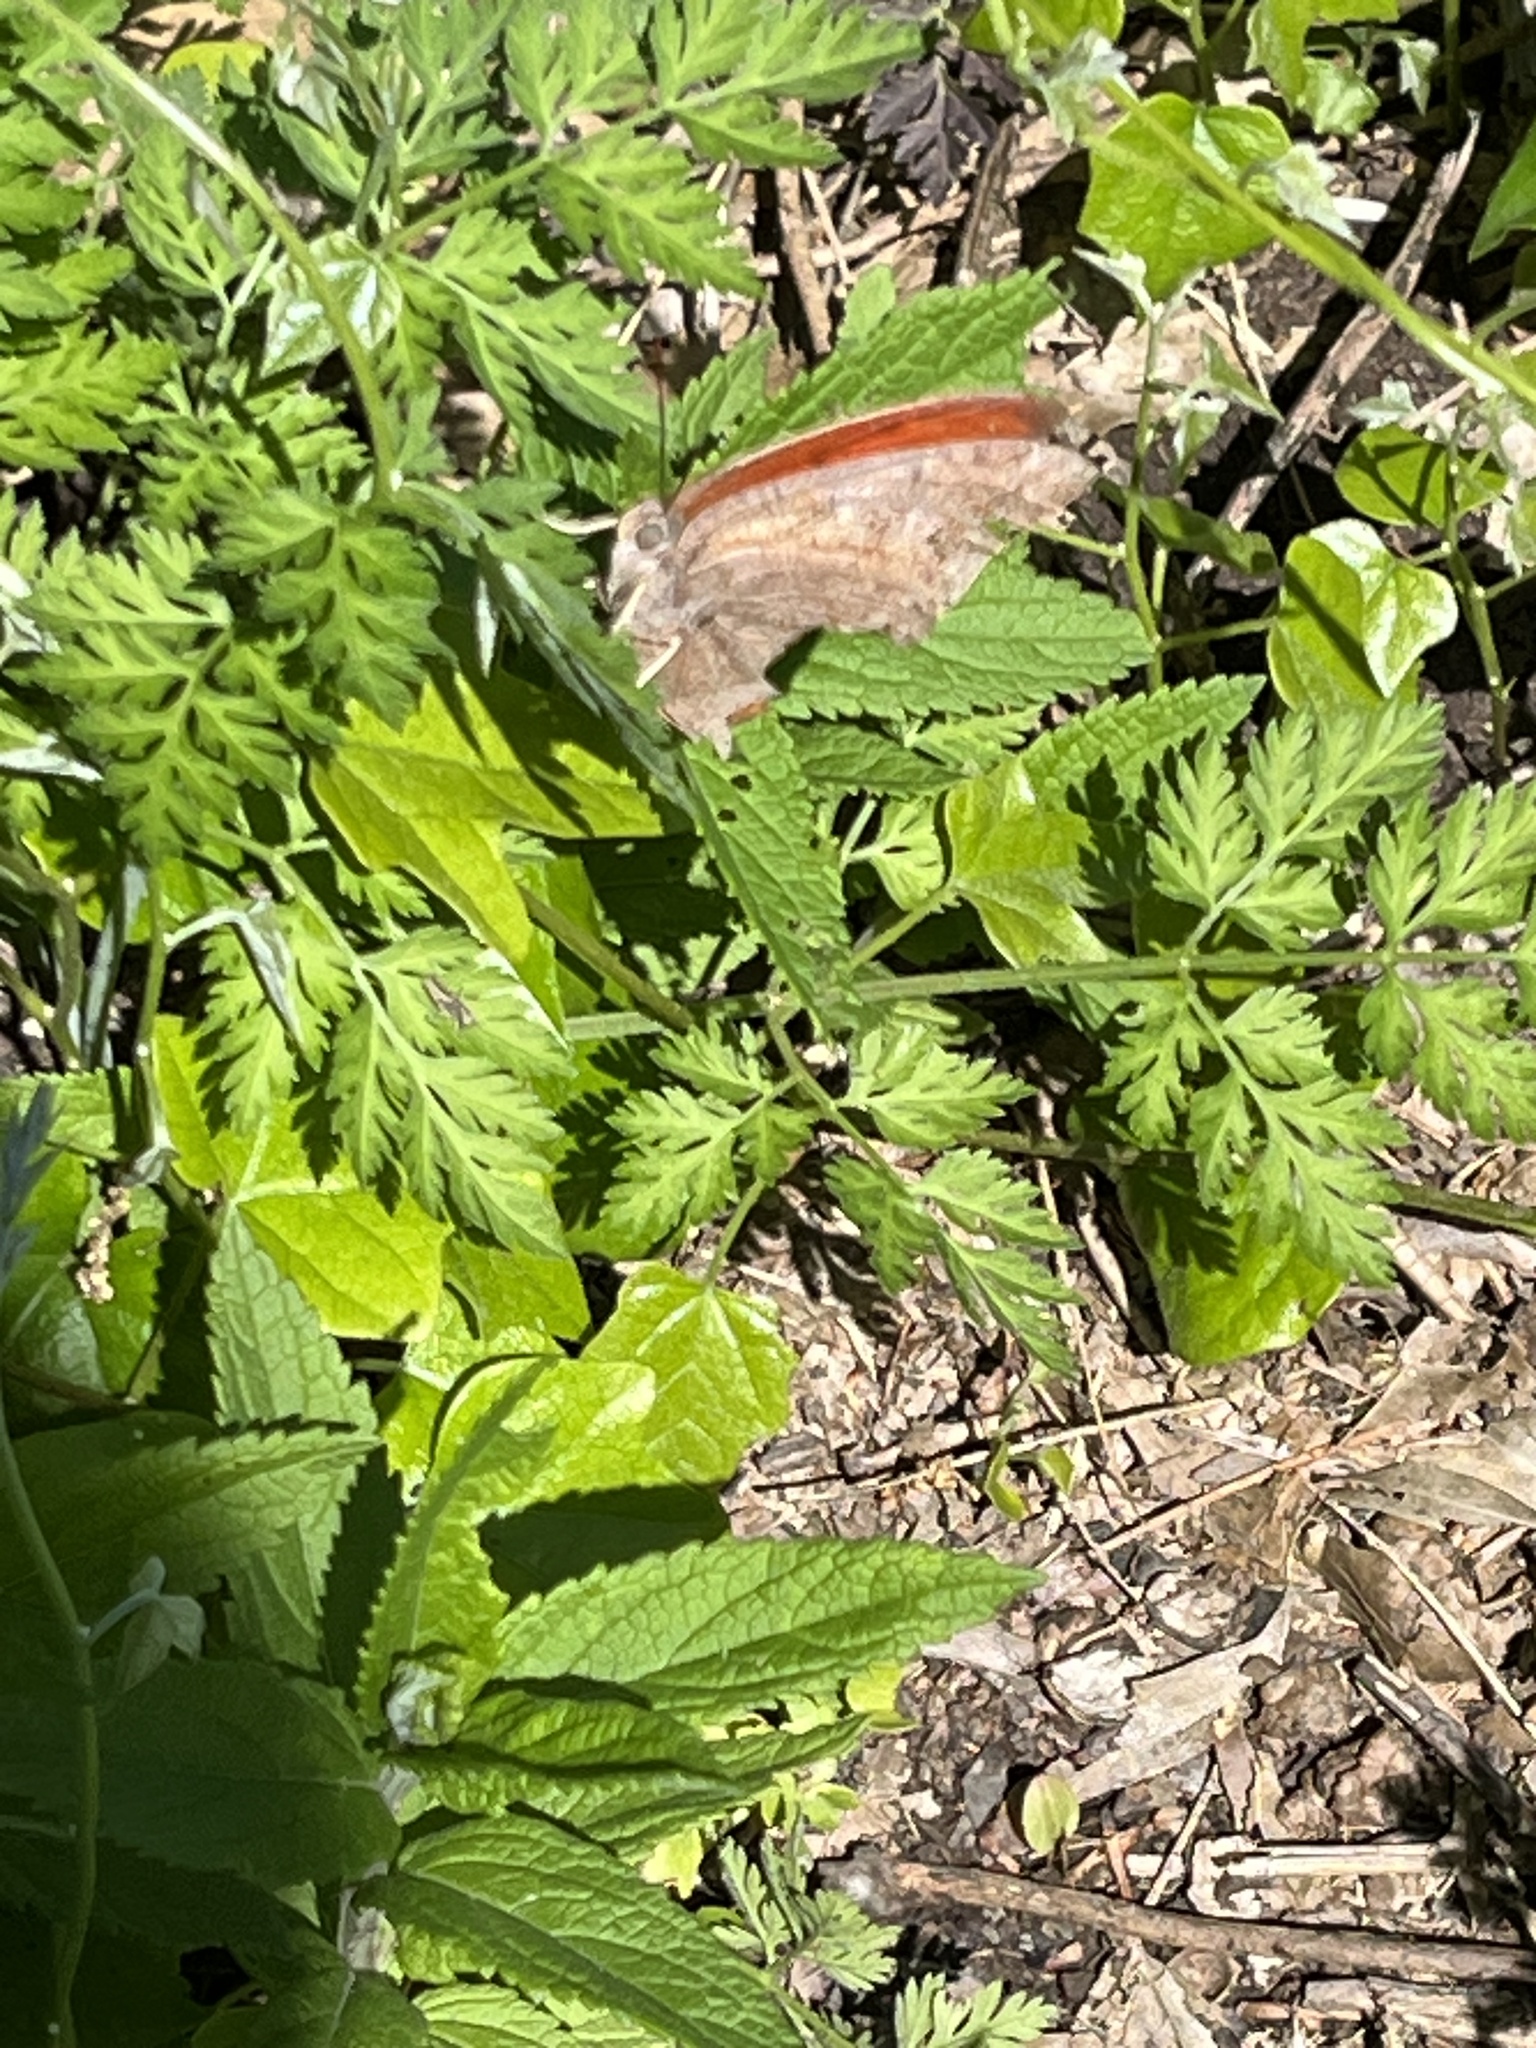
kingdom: Animalia
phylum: Arthropoda
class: Insecta
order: Lepidoptera
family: Nymphalidae
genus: Anaea
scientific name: Anaea andria
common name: Goatweed leafwing
